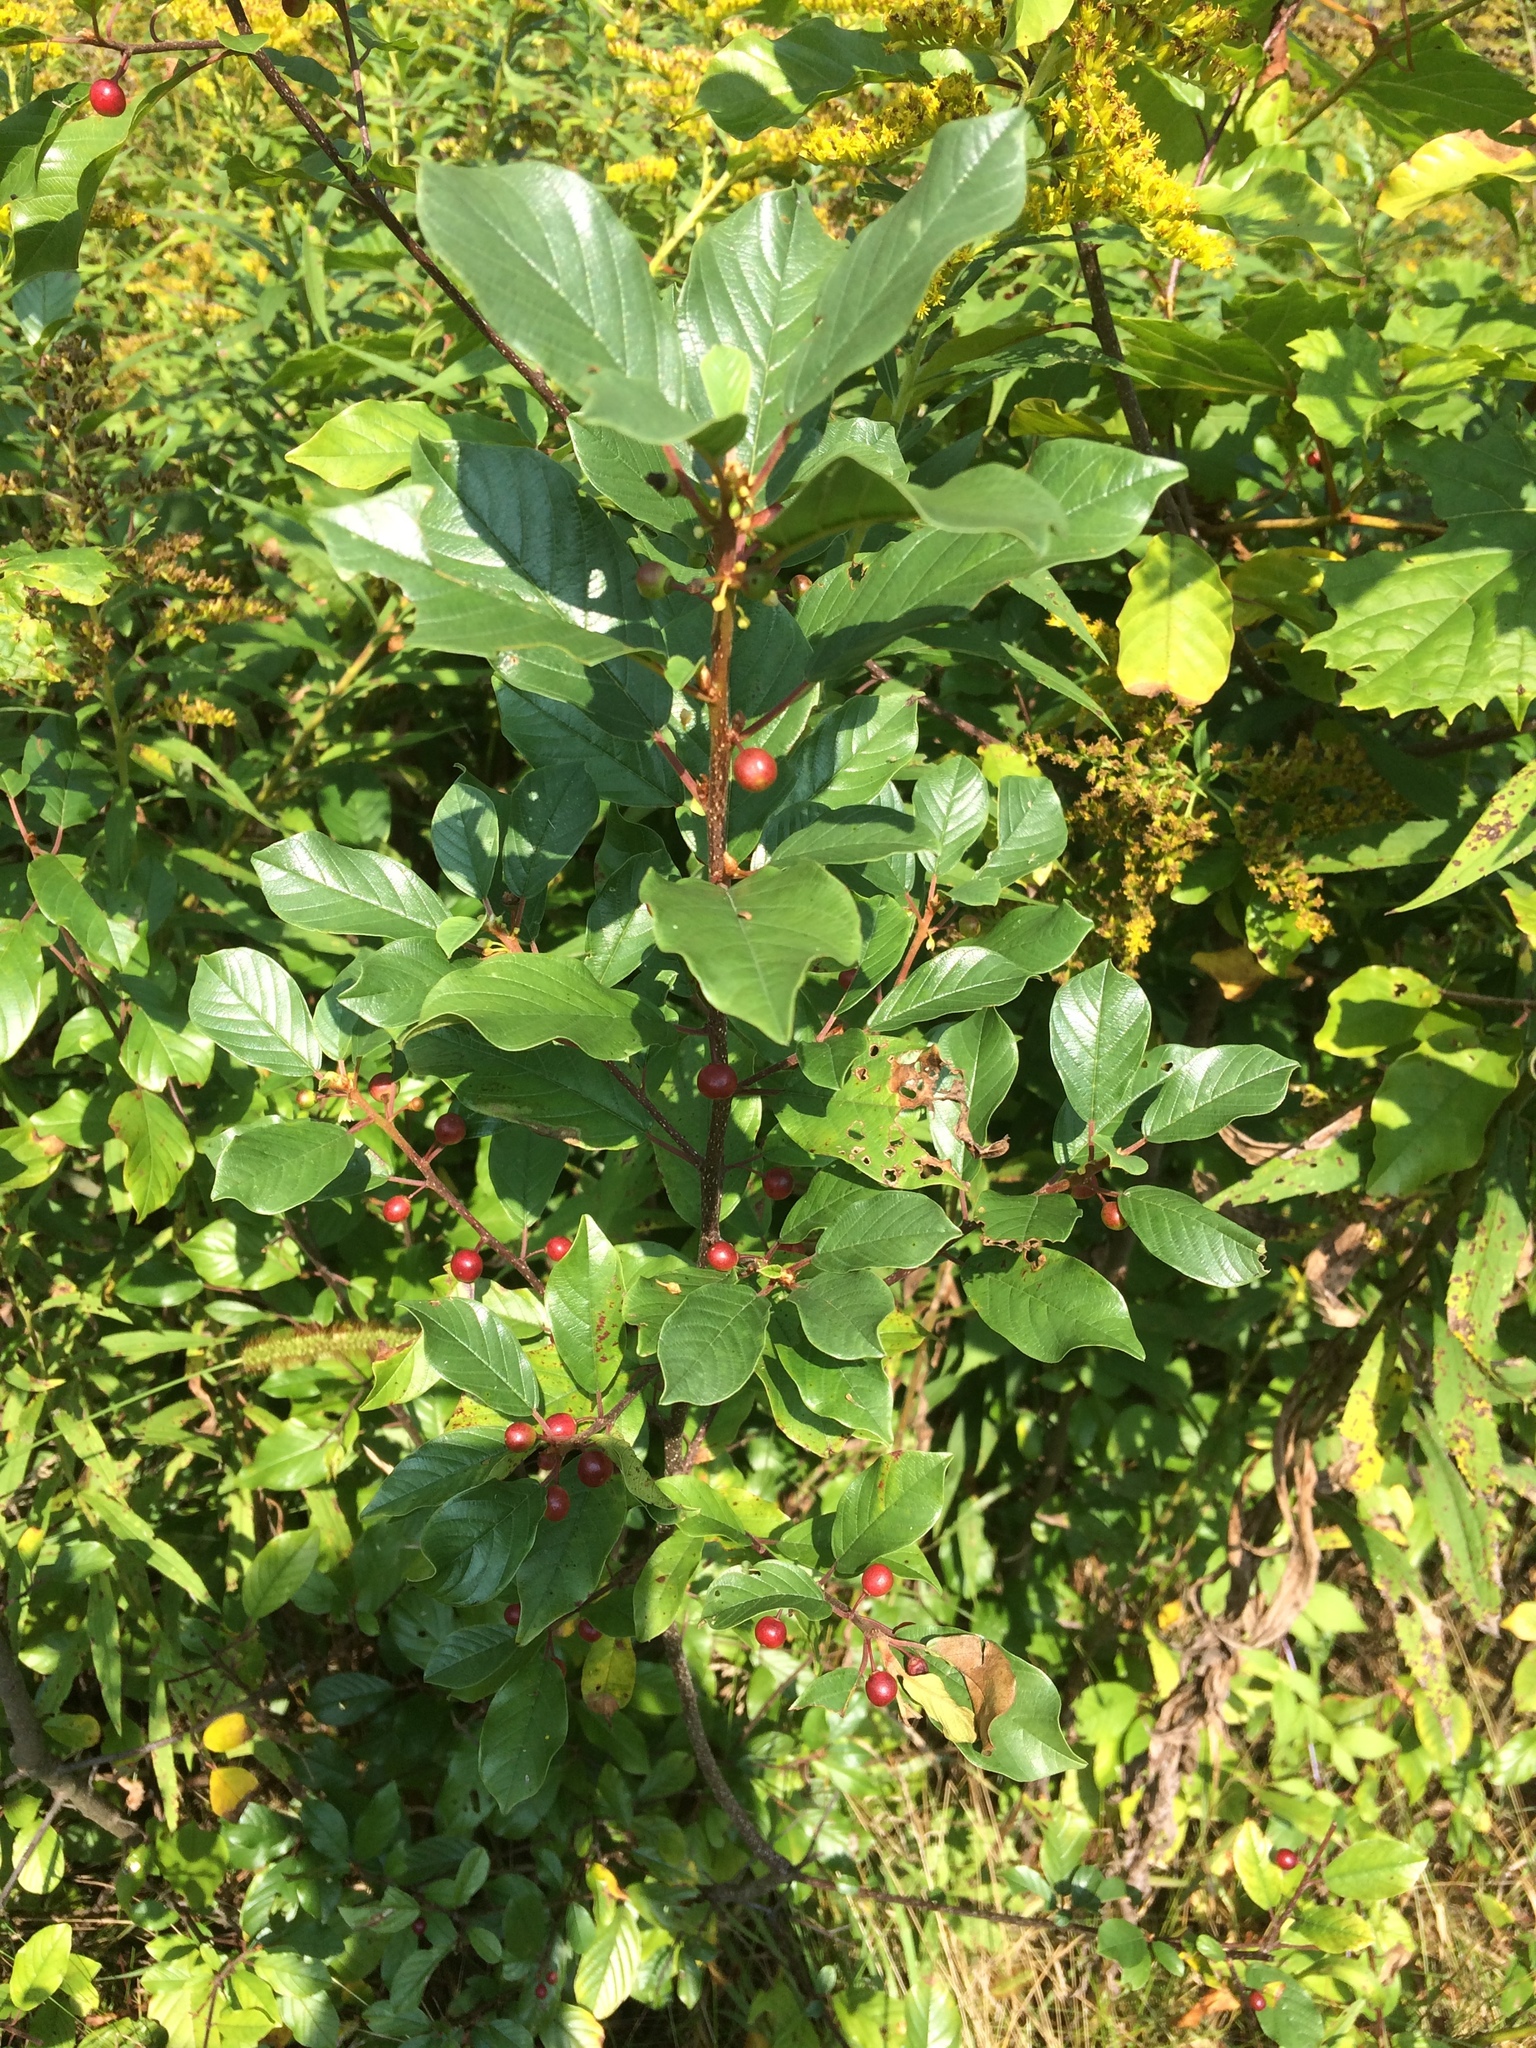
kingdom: Plantae
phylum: Tracheophyta
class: Magnoliopsida
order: Rosales
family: Rhamnaceae
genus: Frangula
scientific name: Frangula alnus
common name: Alder buckthorn
